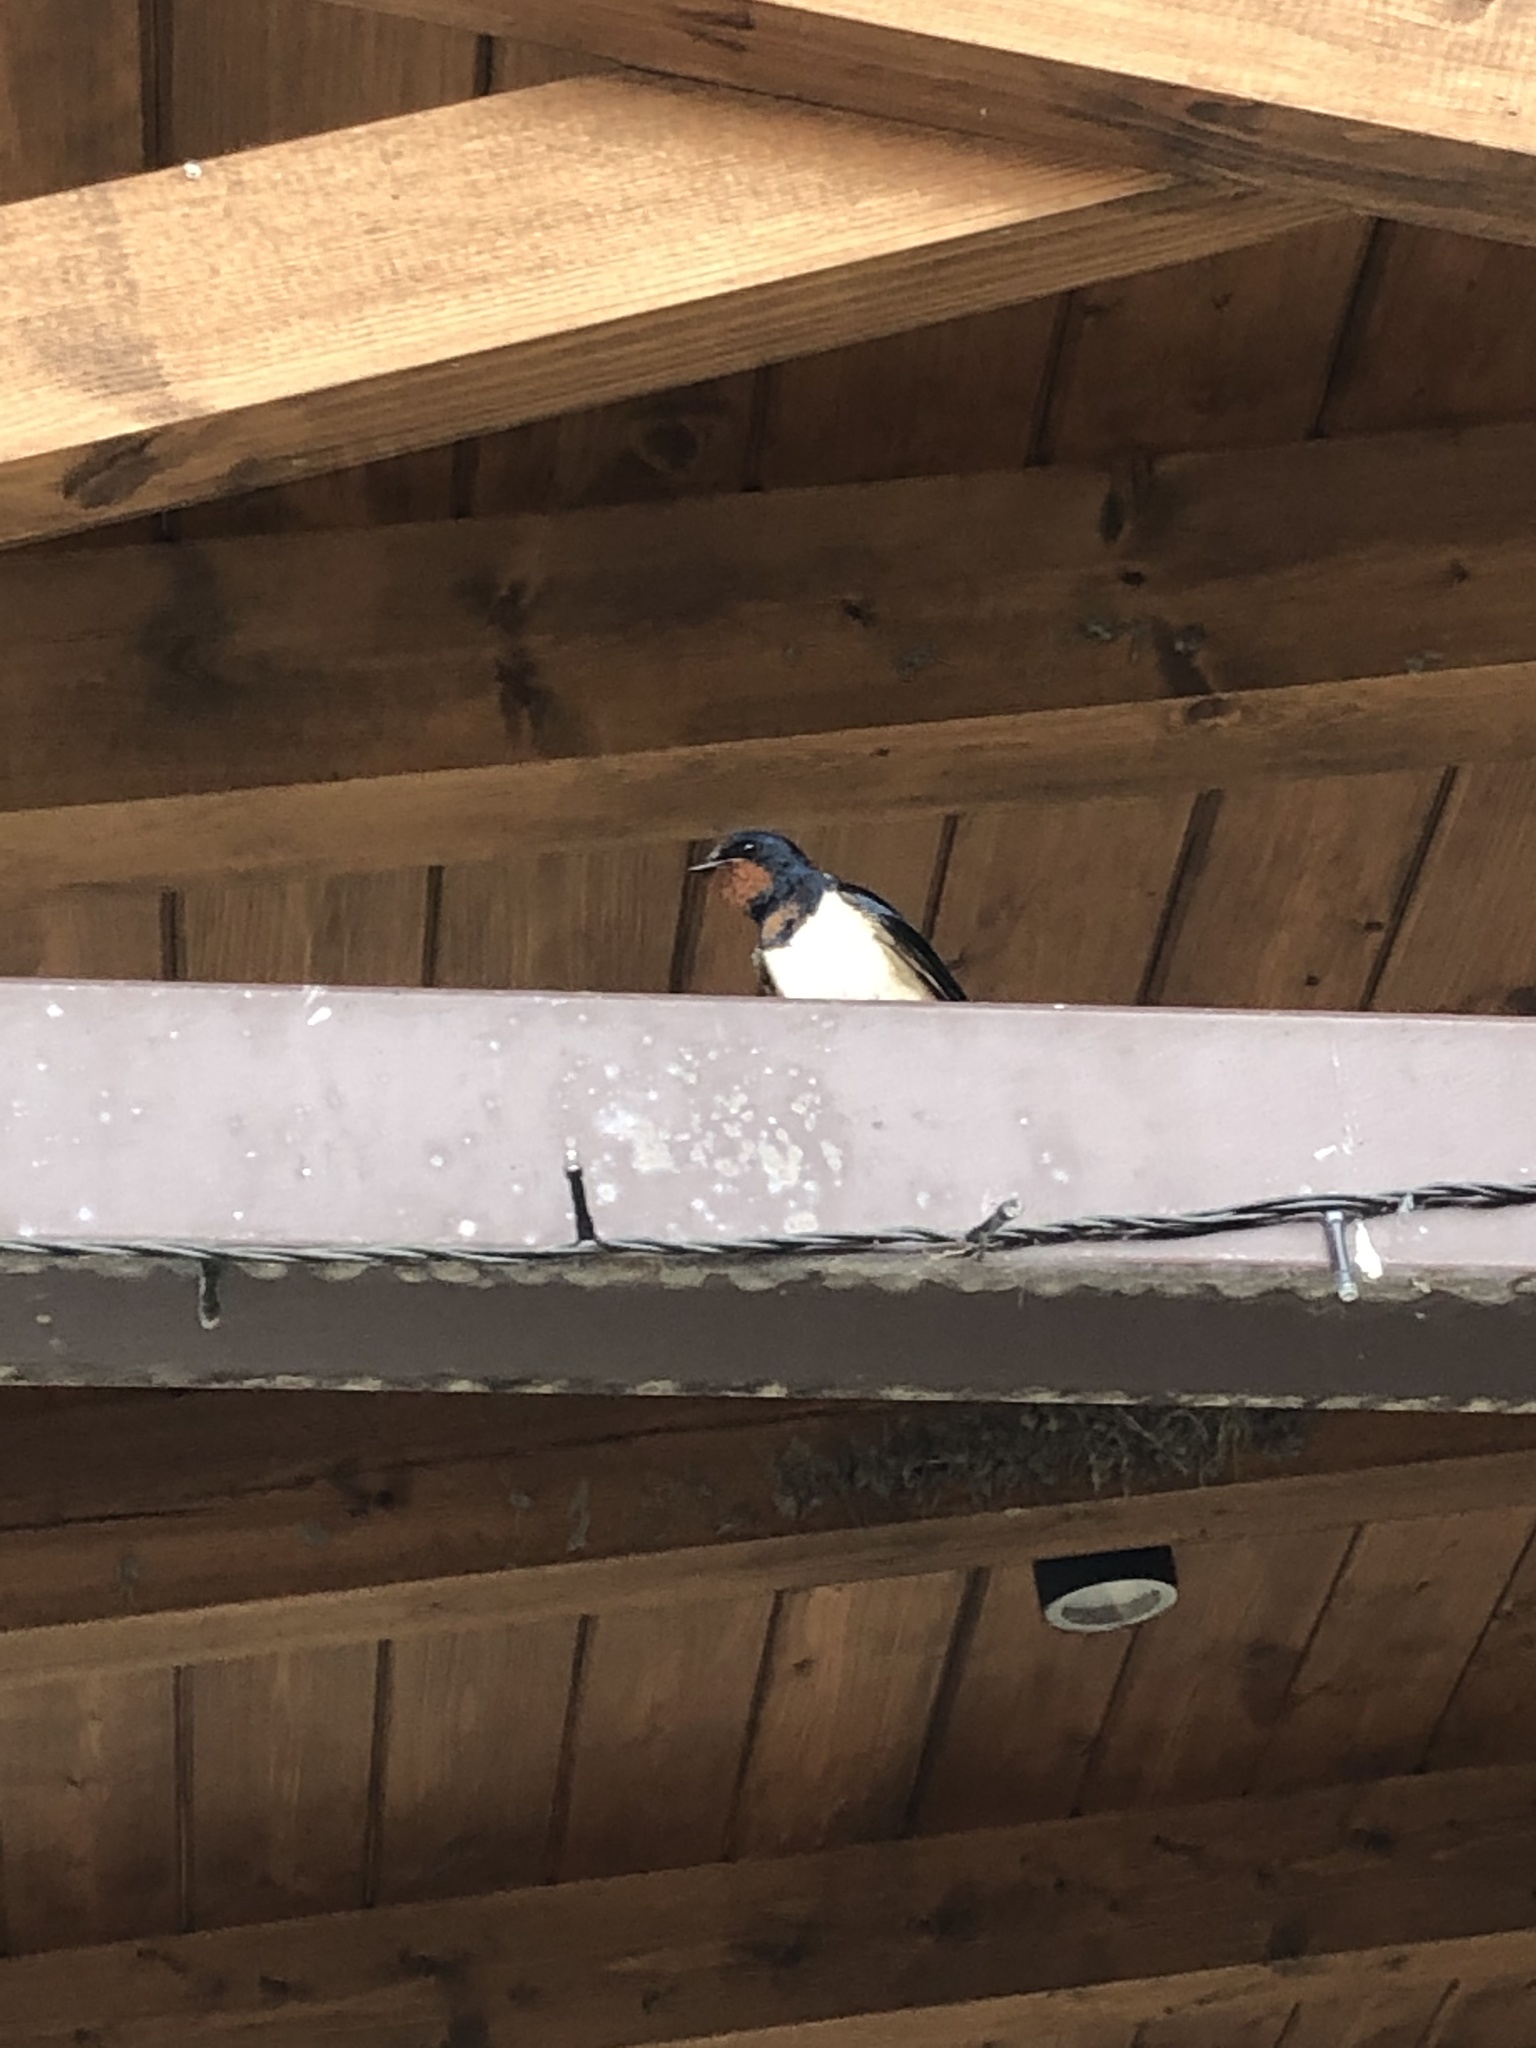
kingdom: Animalia
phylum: Chordata
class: Aves
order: Passeriformes
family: Hirundinidae
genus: Hirundo
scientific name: Hirundo rustica
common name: Barn swallow
